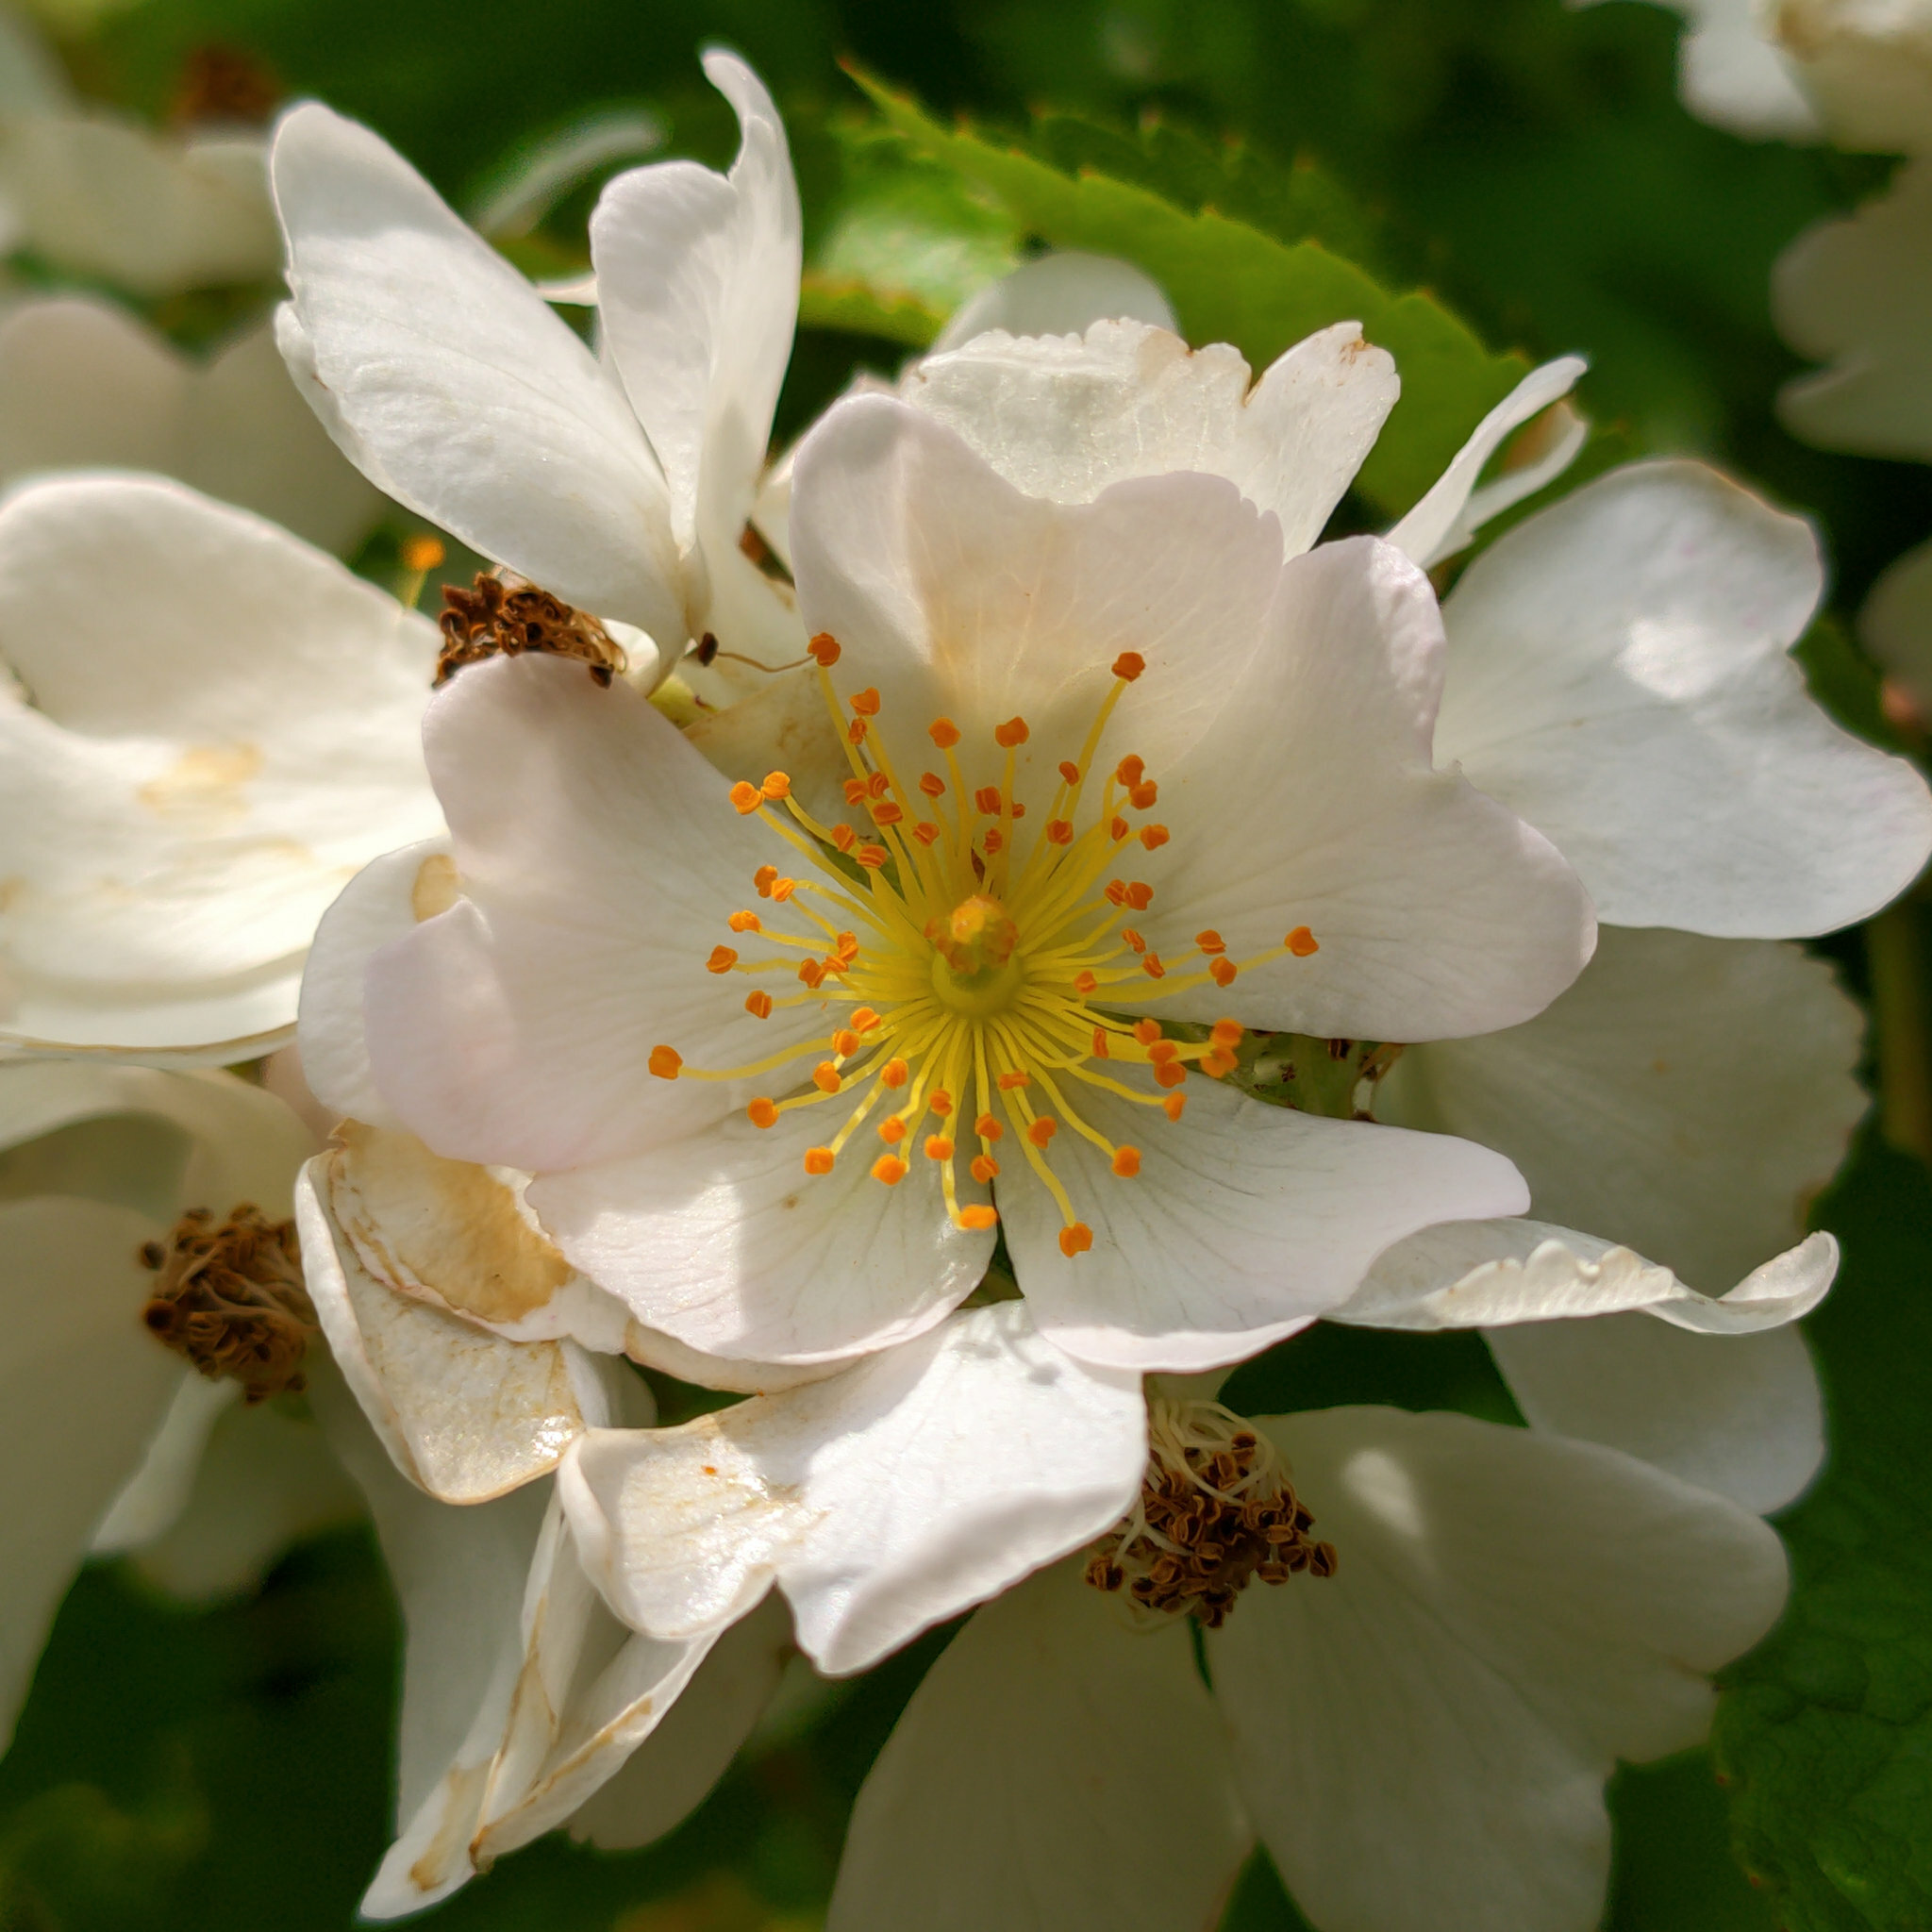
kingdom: Plantae
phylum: Tracheophyta
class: Magnoliopsida
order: Rosales
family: Rosaceae
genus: Rosa
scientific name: Rosa multiflora
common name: Multiflora rose
